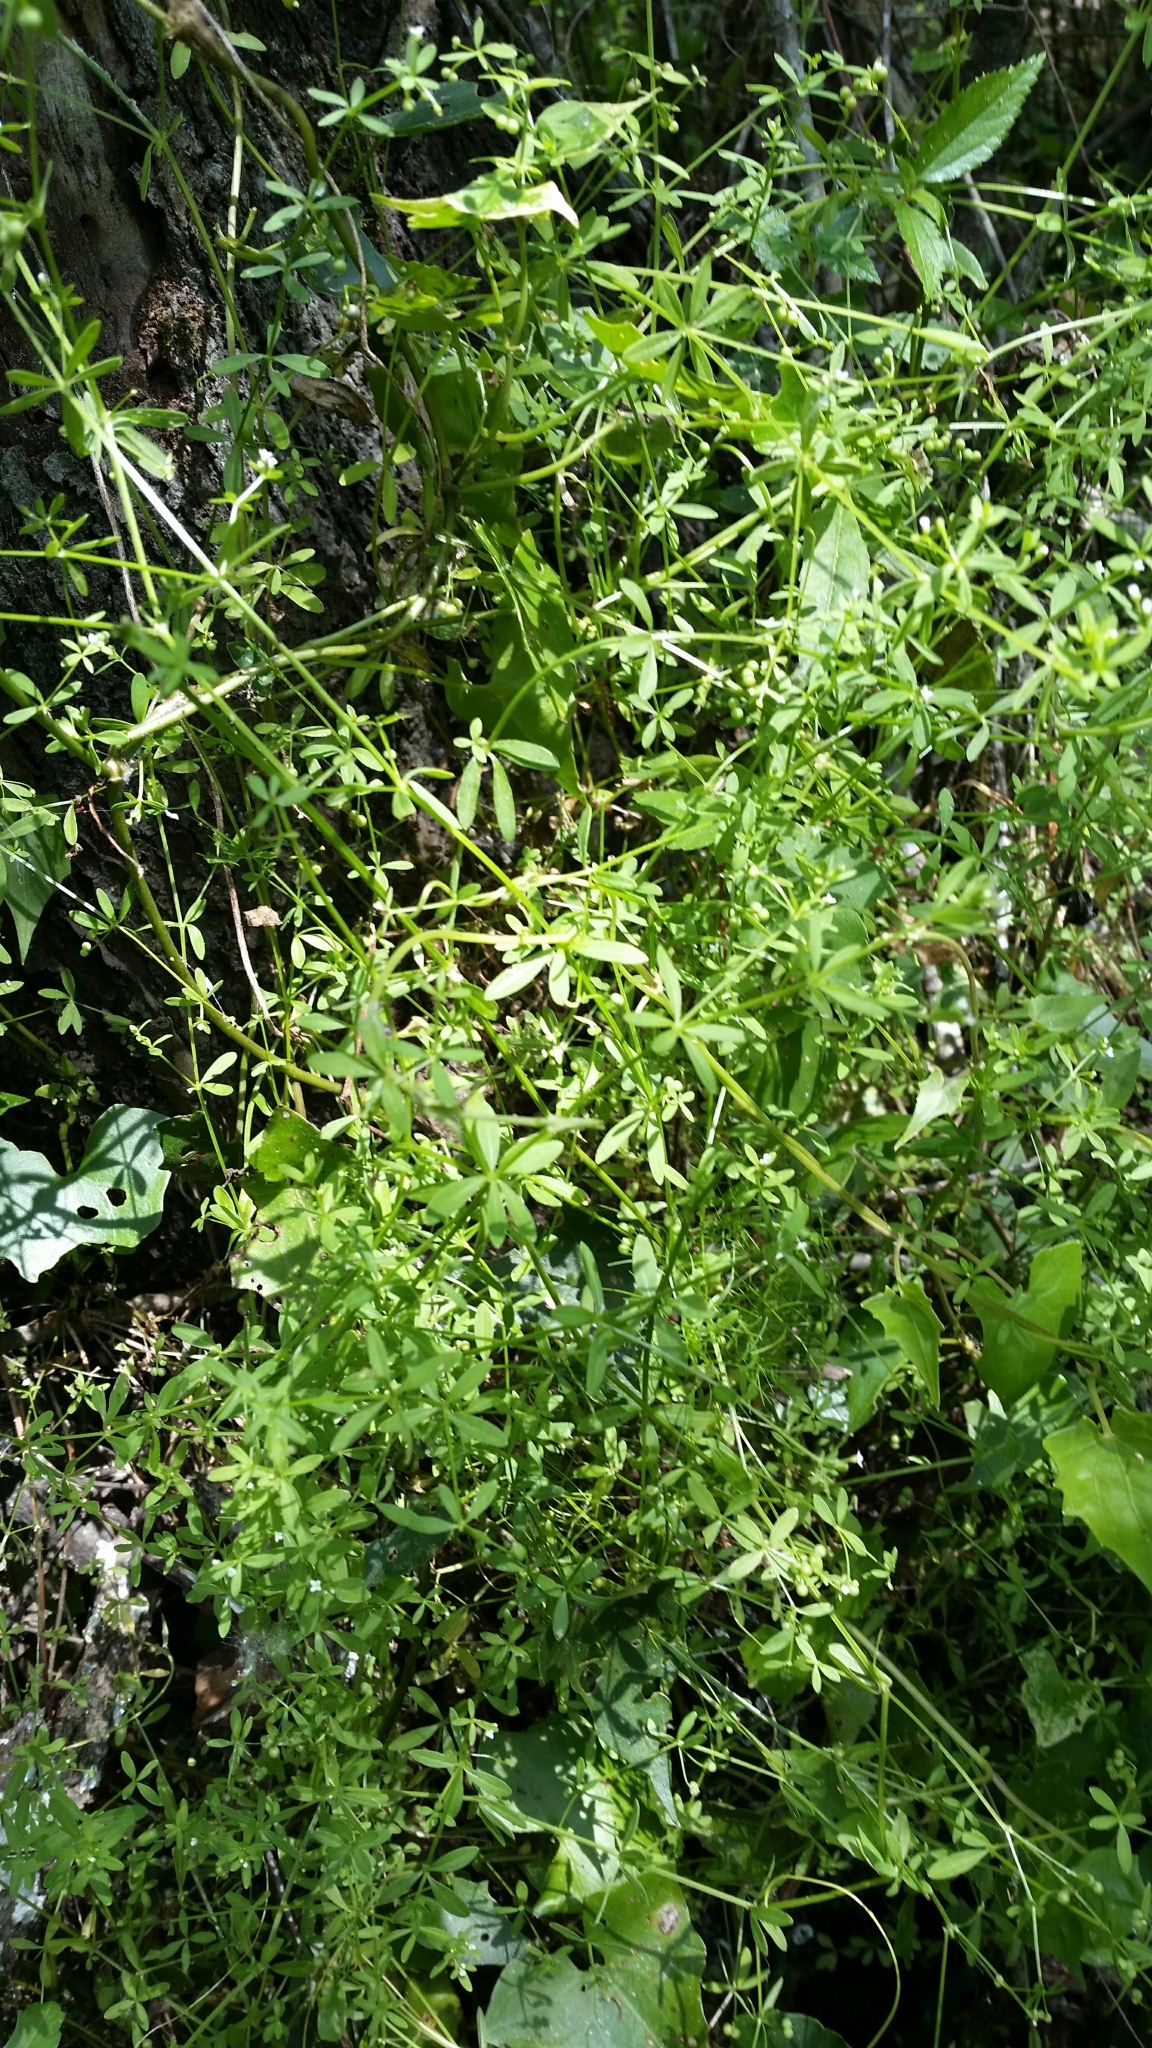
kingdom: Plantae
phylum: Tracheophyta
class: Magnoliopsida
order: Gentianales
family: Rubiaceae
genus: Galium
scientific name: Galium tinctorium
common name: Bedstraw
